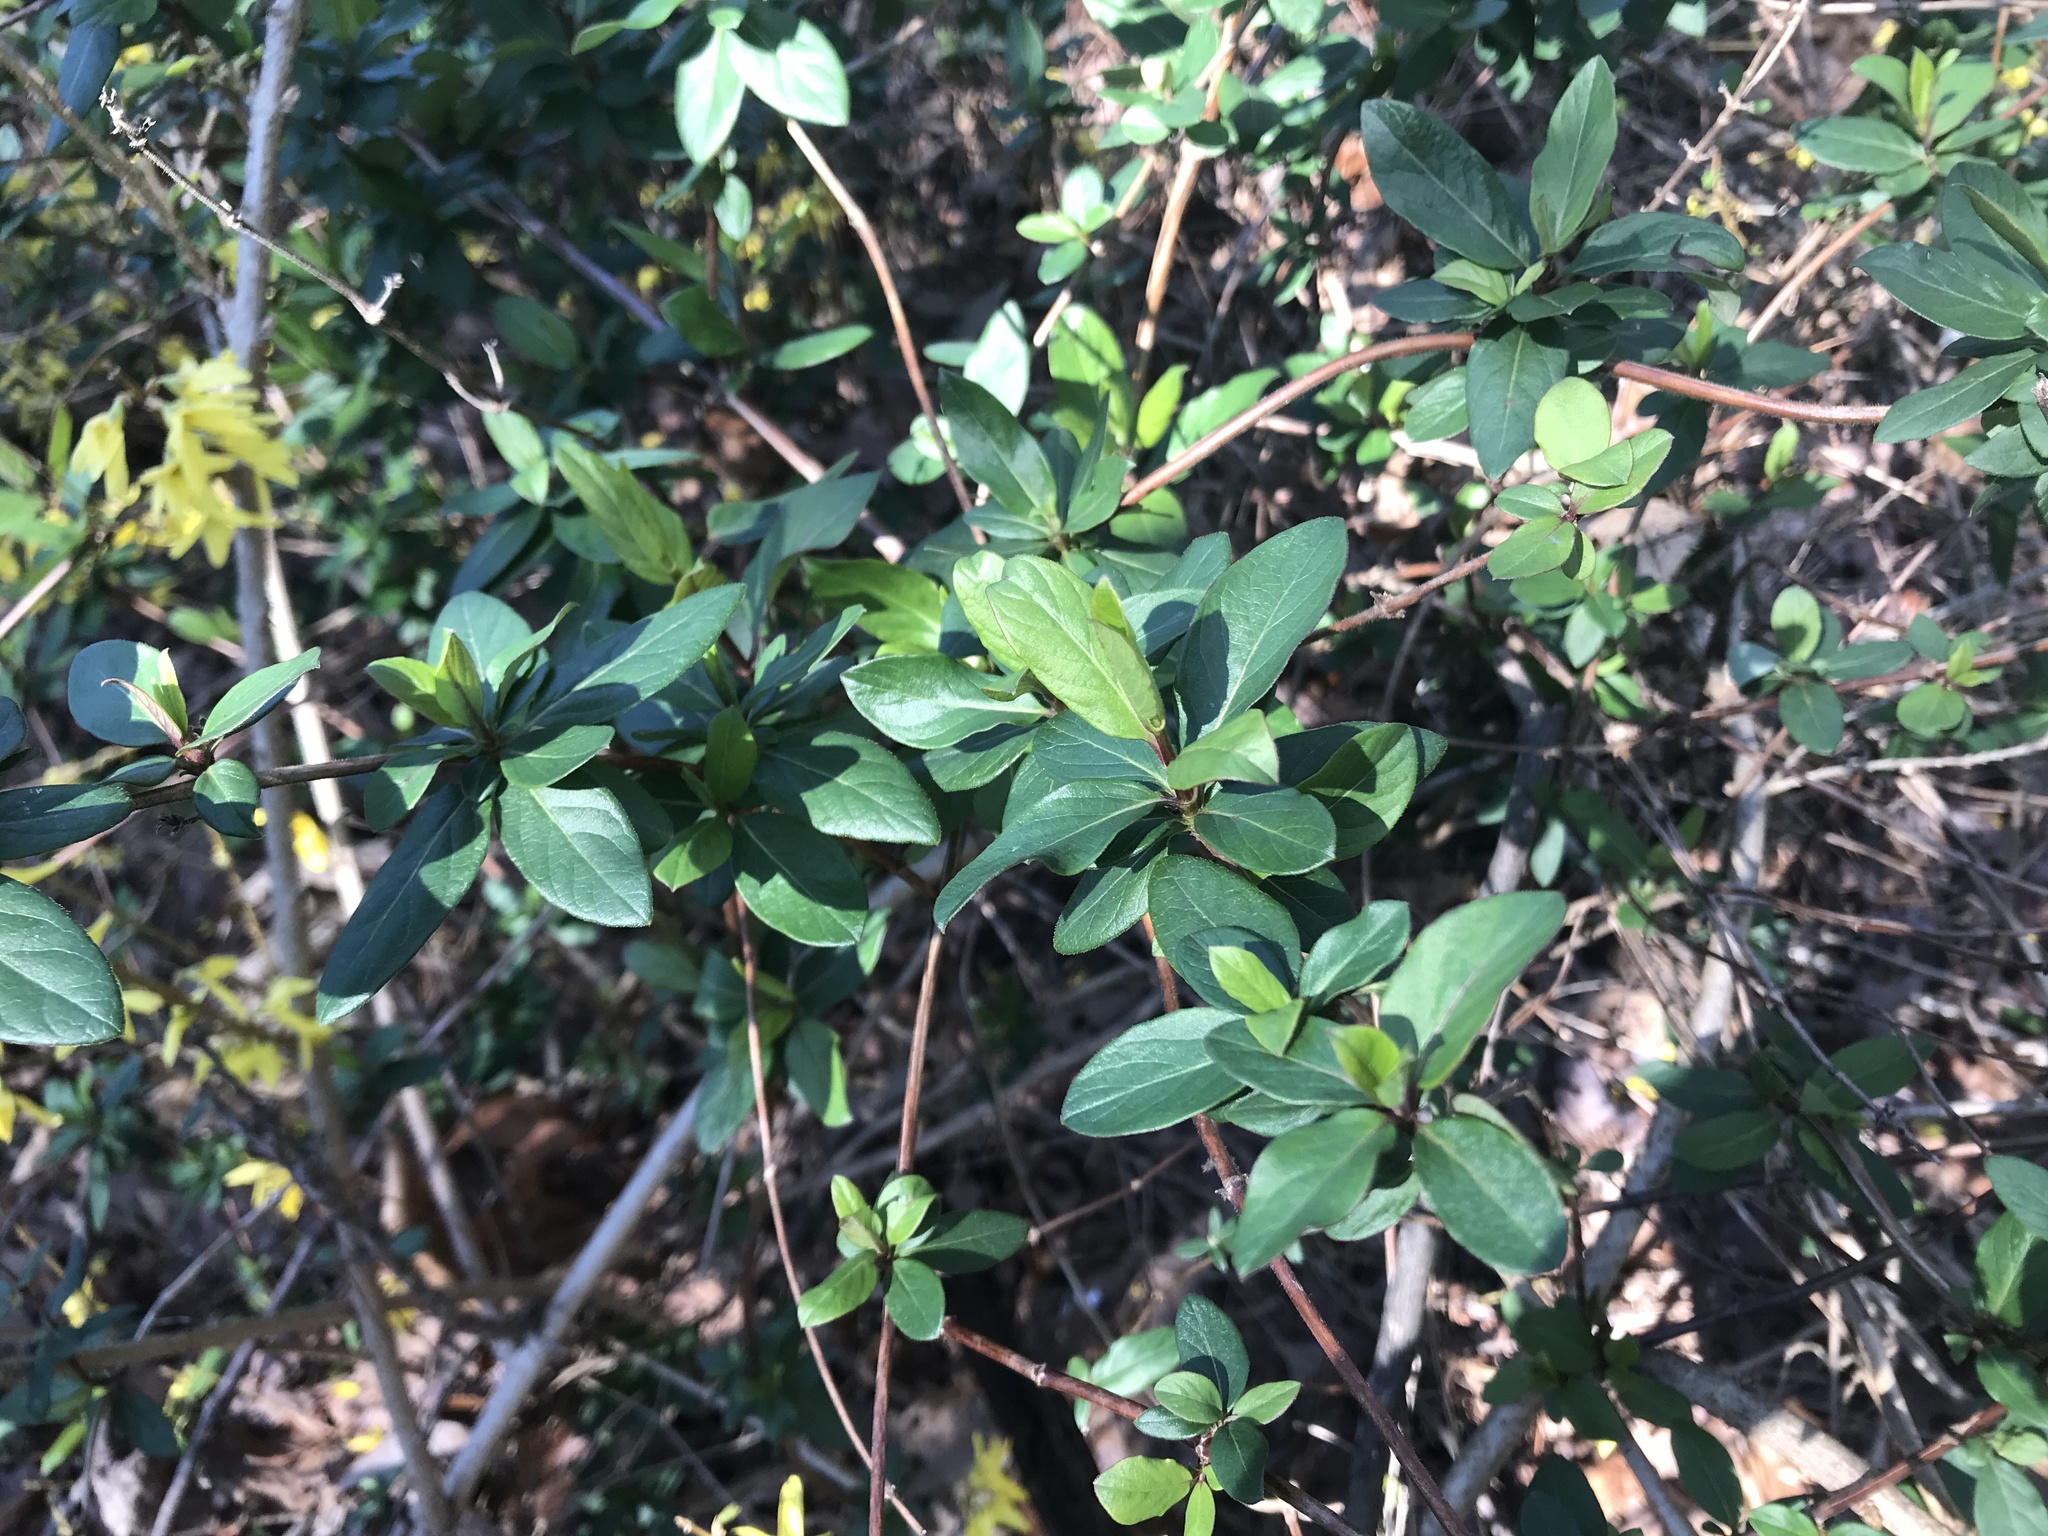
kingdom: Plantae
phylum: Tracheophyta
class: Magnoliopsida
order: Dipsacales
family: Caprifoliaceae
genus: Lonicera
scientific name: Lonicera japonica
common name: Japanese honeysuckle
